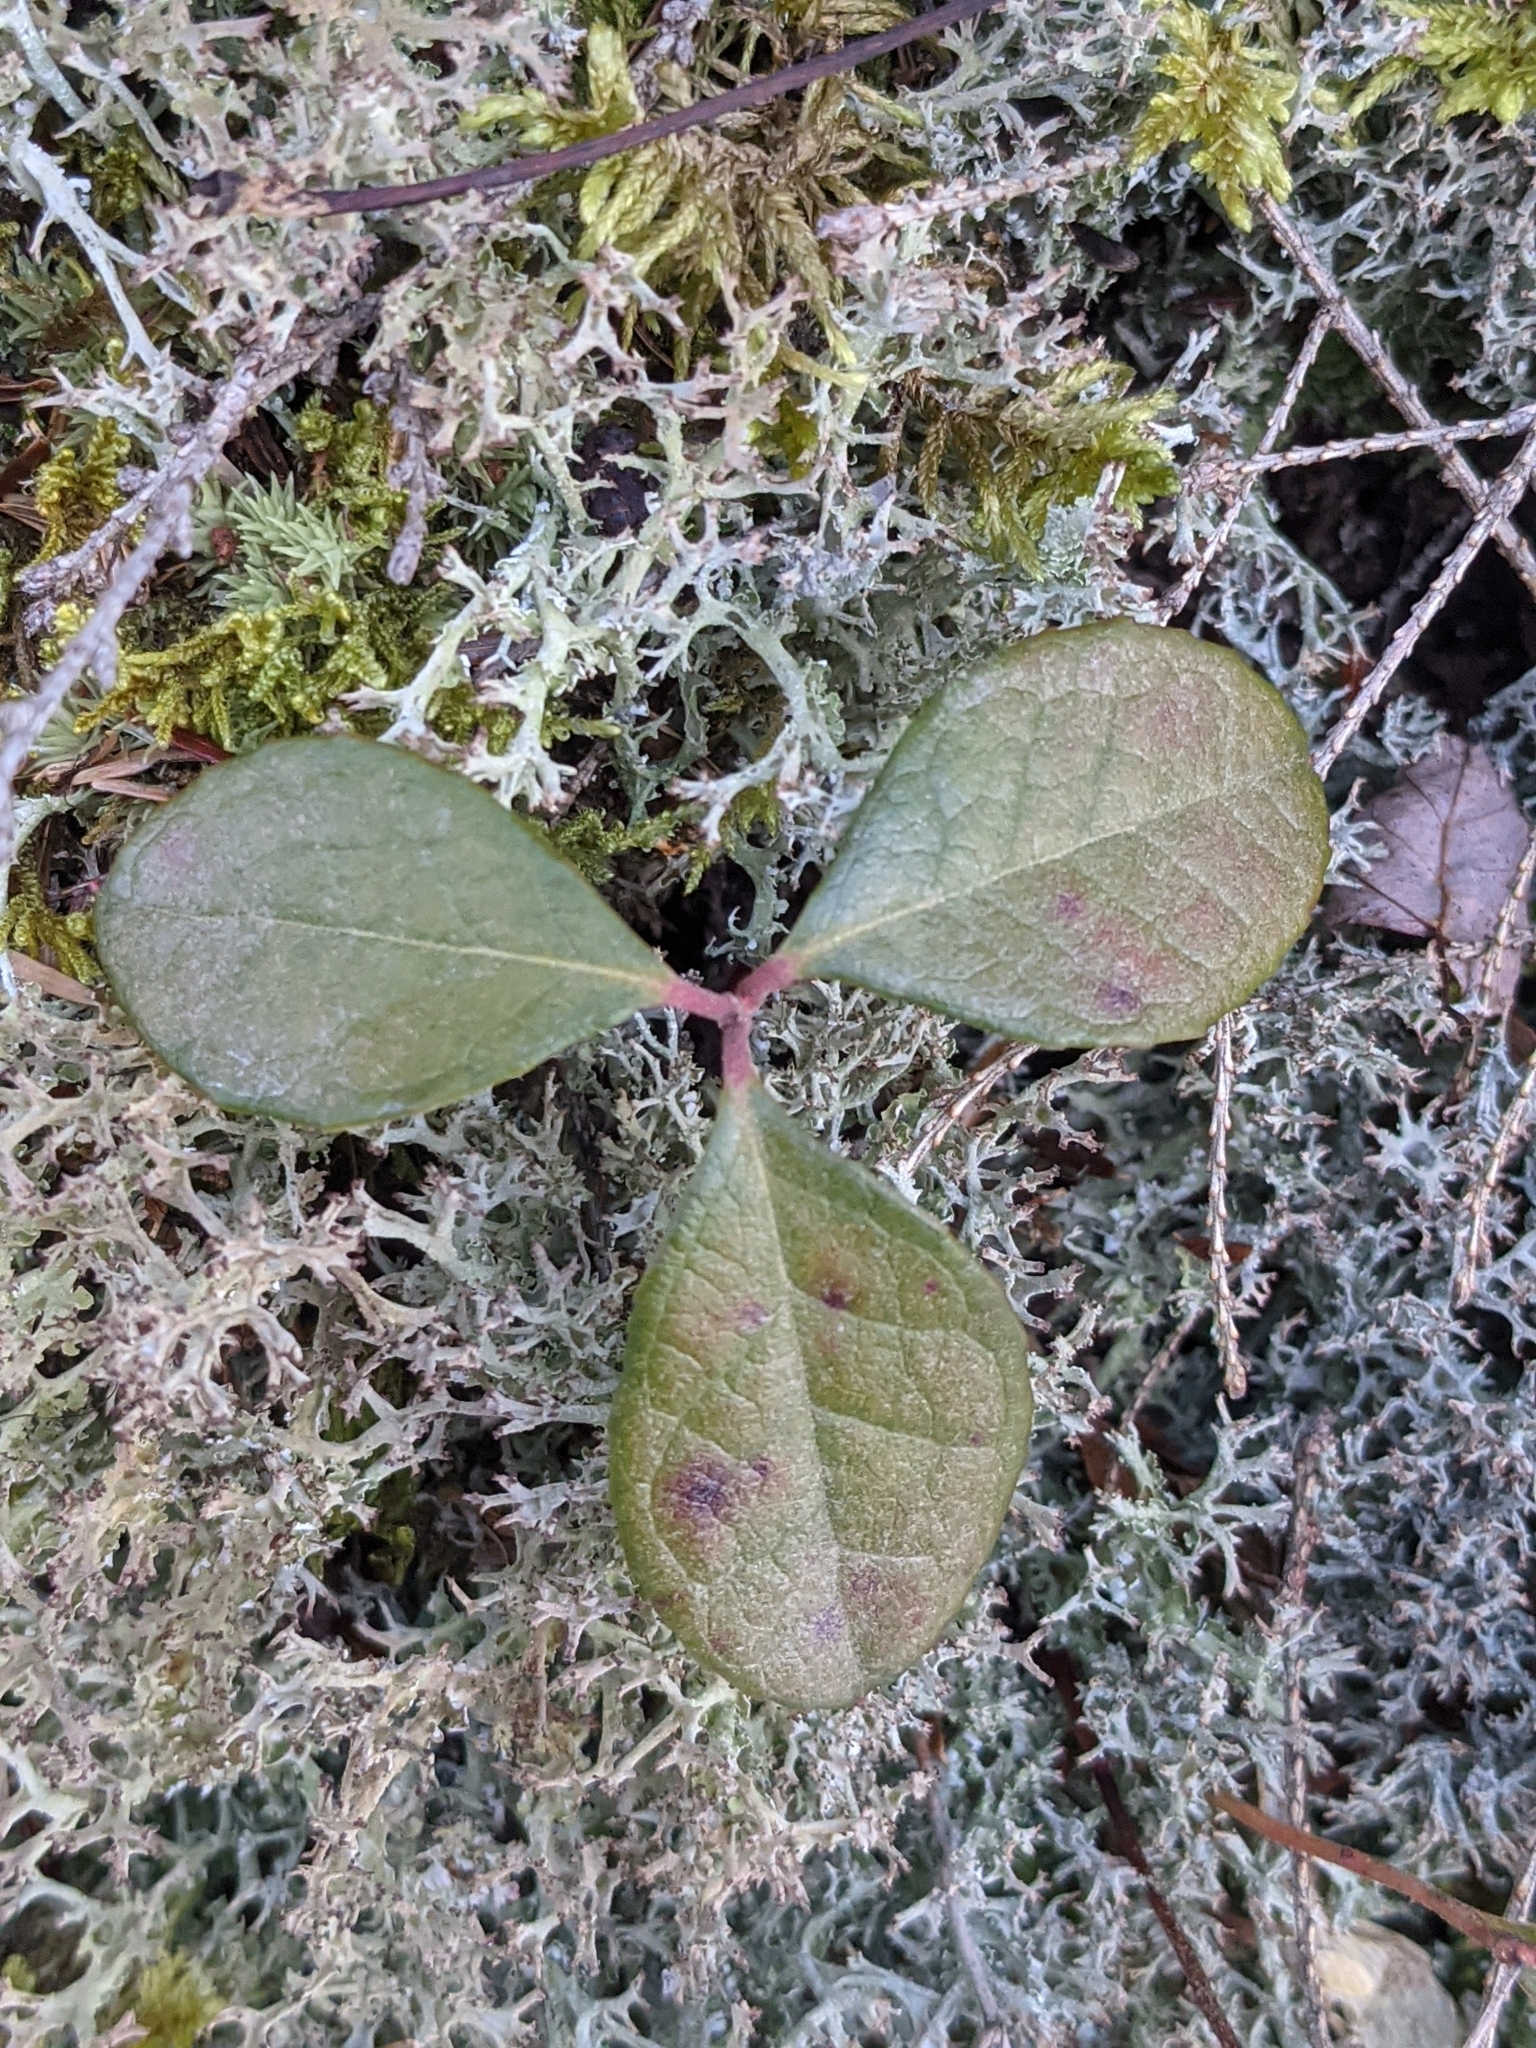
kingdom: Plantae
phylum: Tracheophyta
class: Magnoliopsida
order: Ericales
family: Ericaceae
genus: Gaultheria
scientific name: Gaultheria procumbens
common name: Checkerberry
